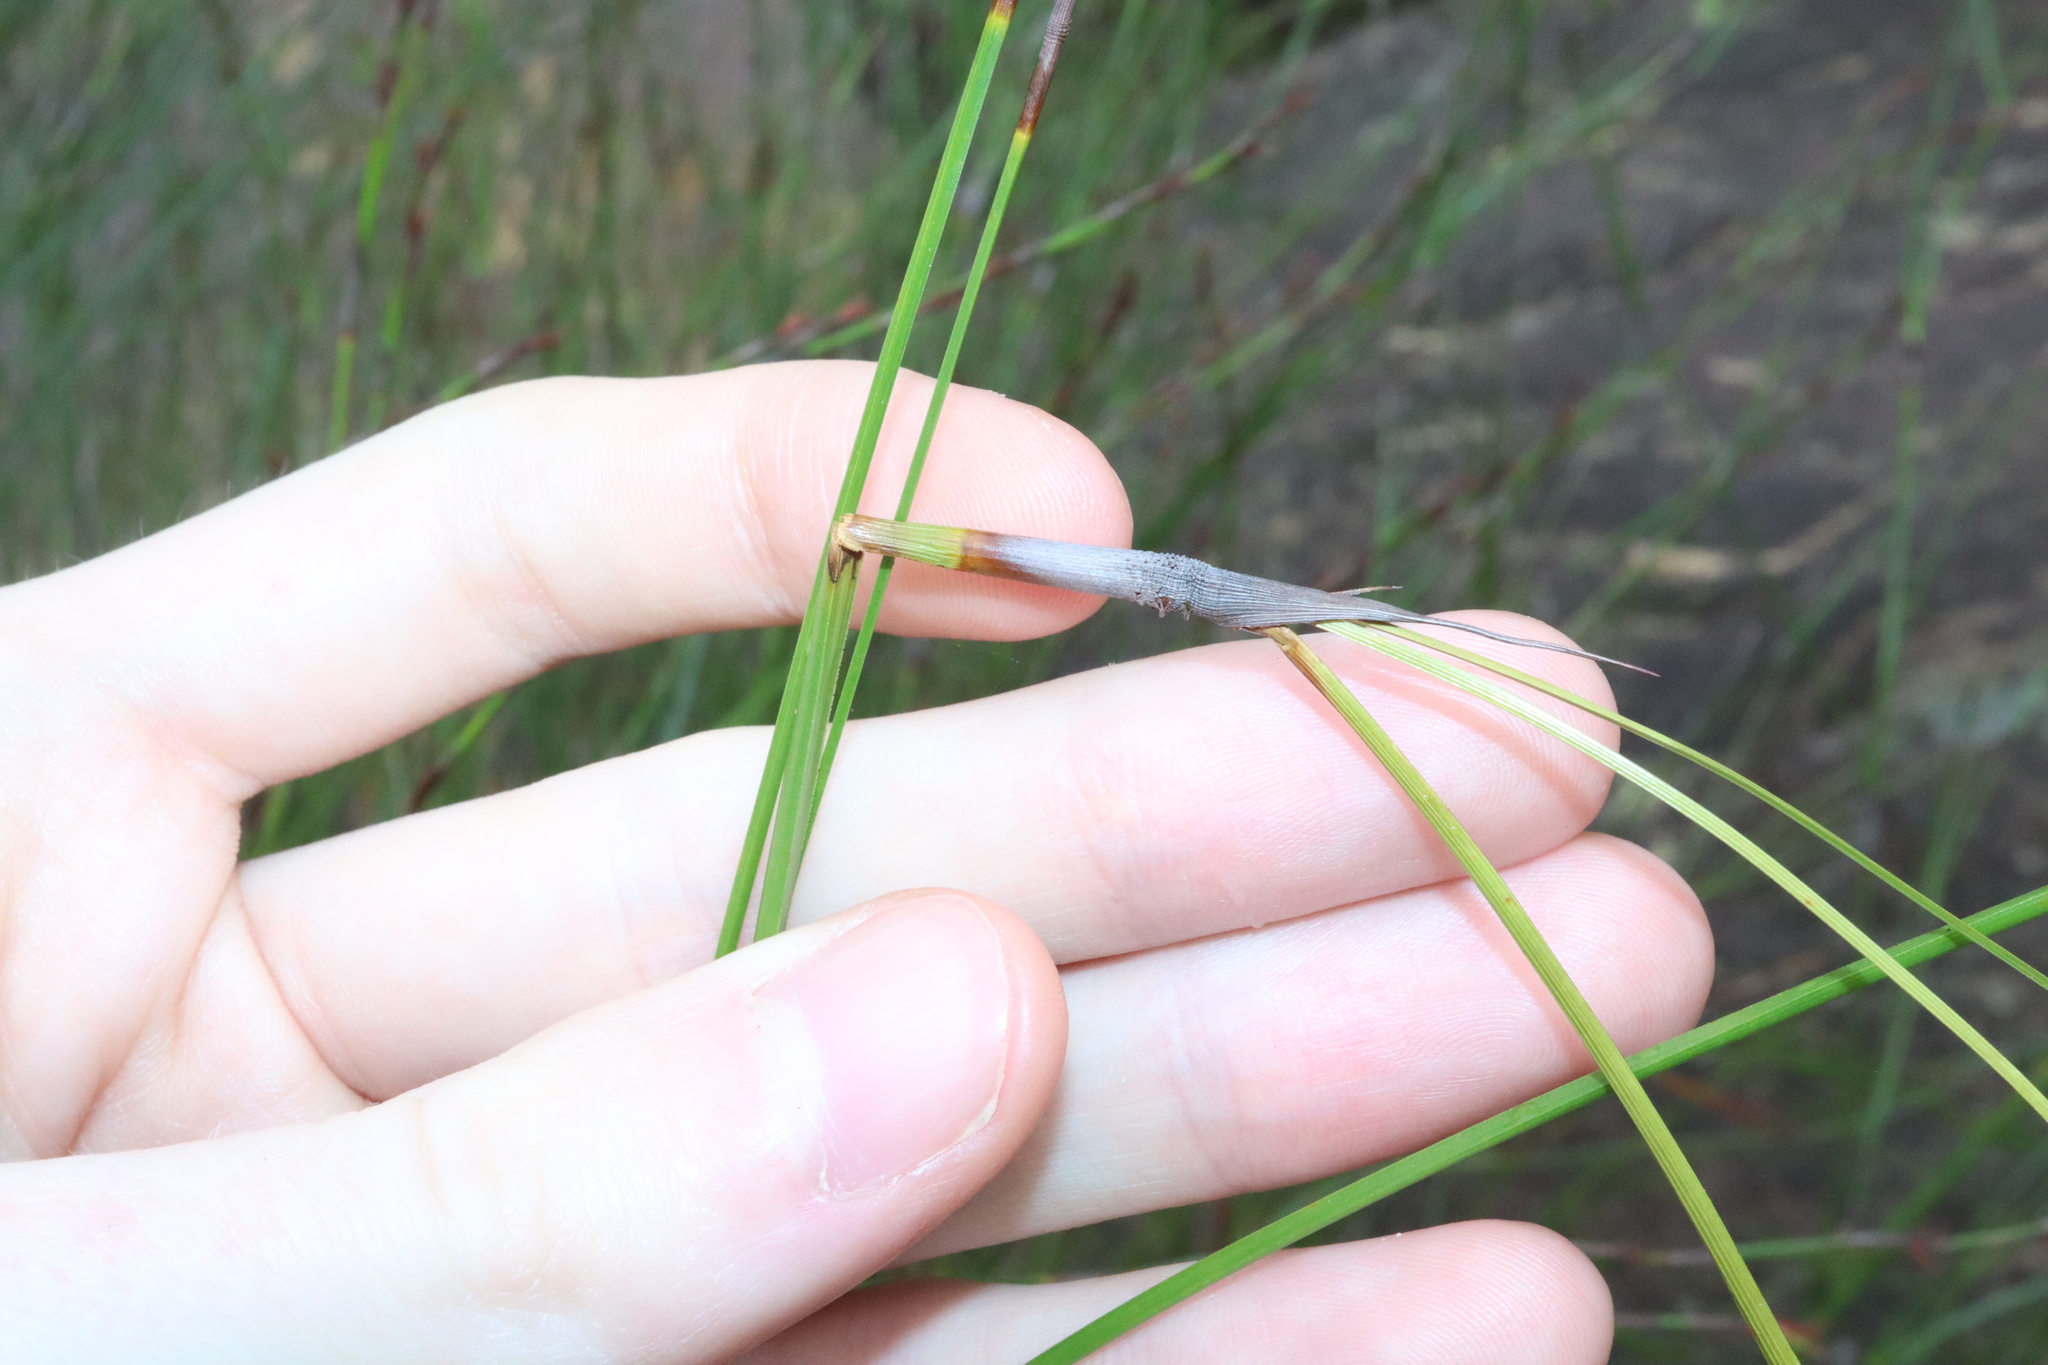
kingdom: Plantae
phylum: Tracheophyta
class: Liliopsida
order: Poales
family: Cyperaceae
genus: Caustis
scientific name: Caustis pentandra
